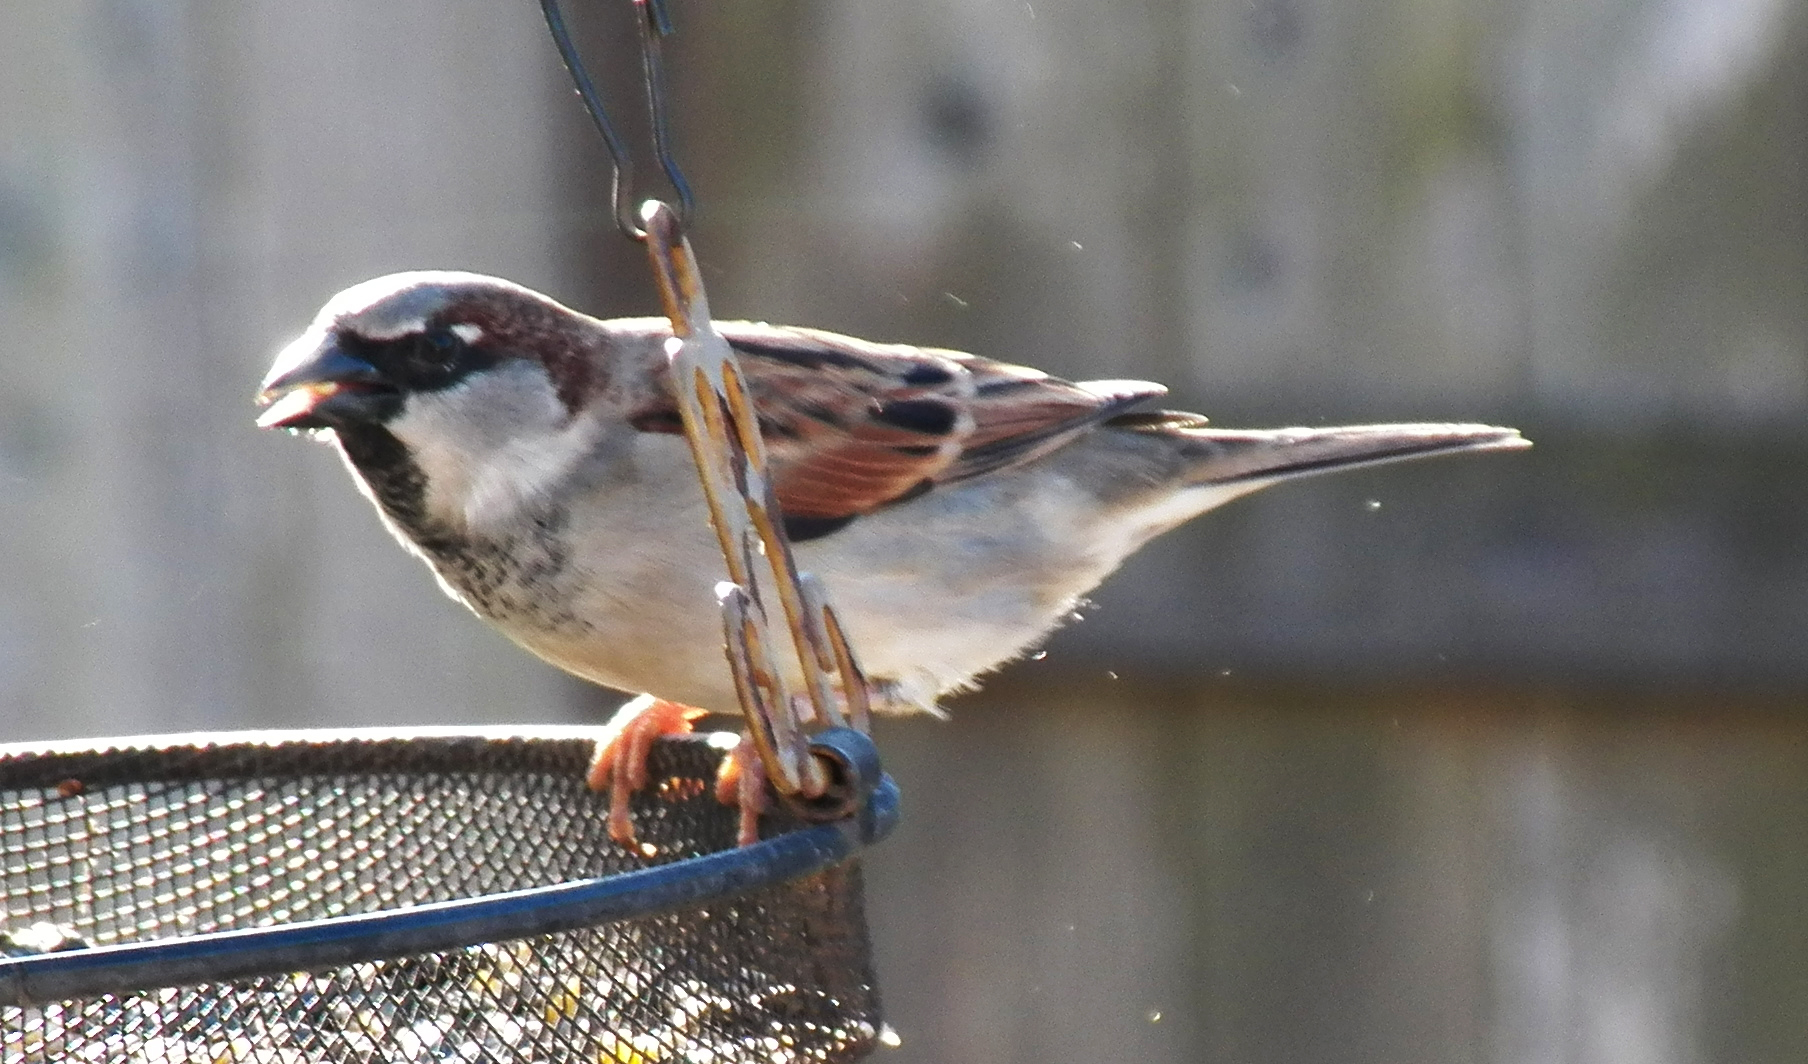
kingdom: Animalia
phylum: Chordata
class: Aves
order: Passeriformes
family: Passeridae
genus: Passer
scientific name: Passer domesticus
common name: House sparrow
